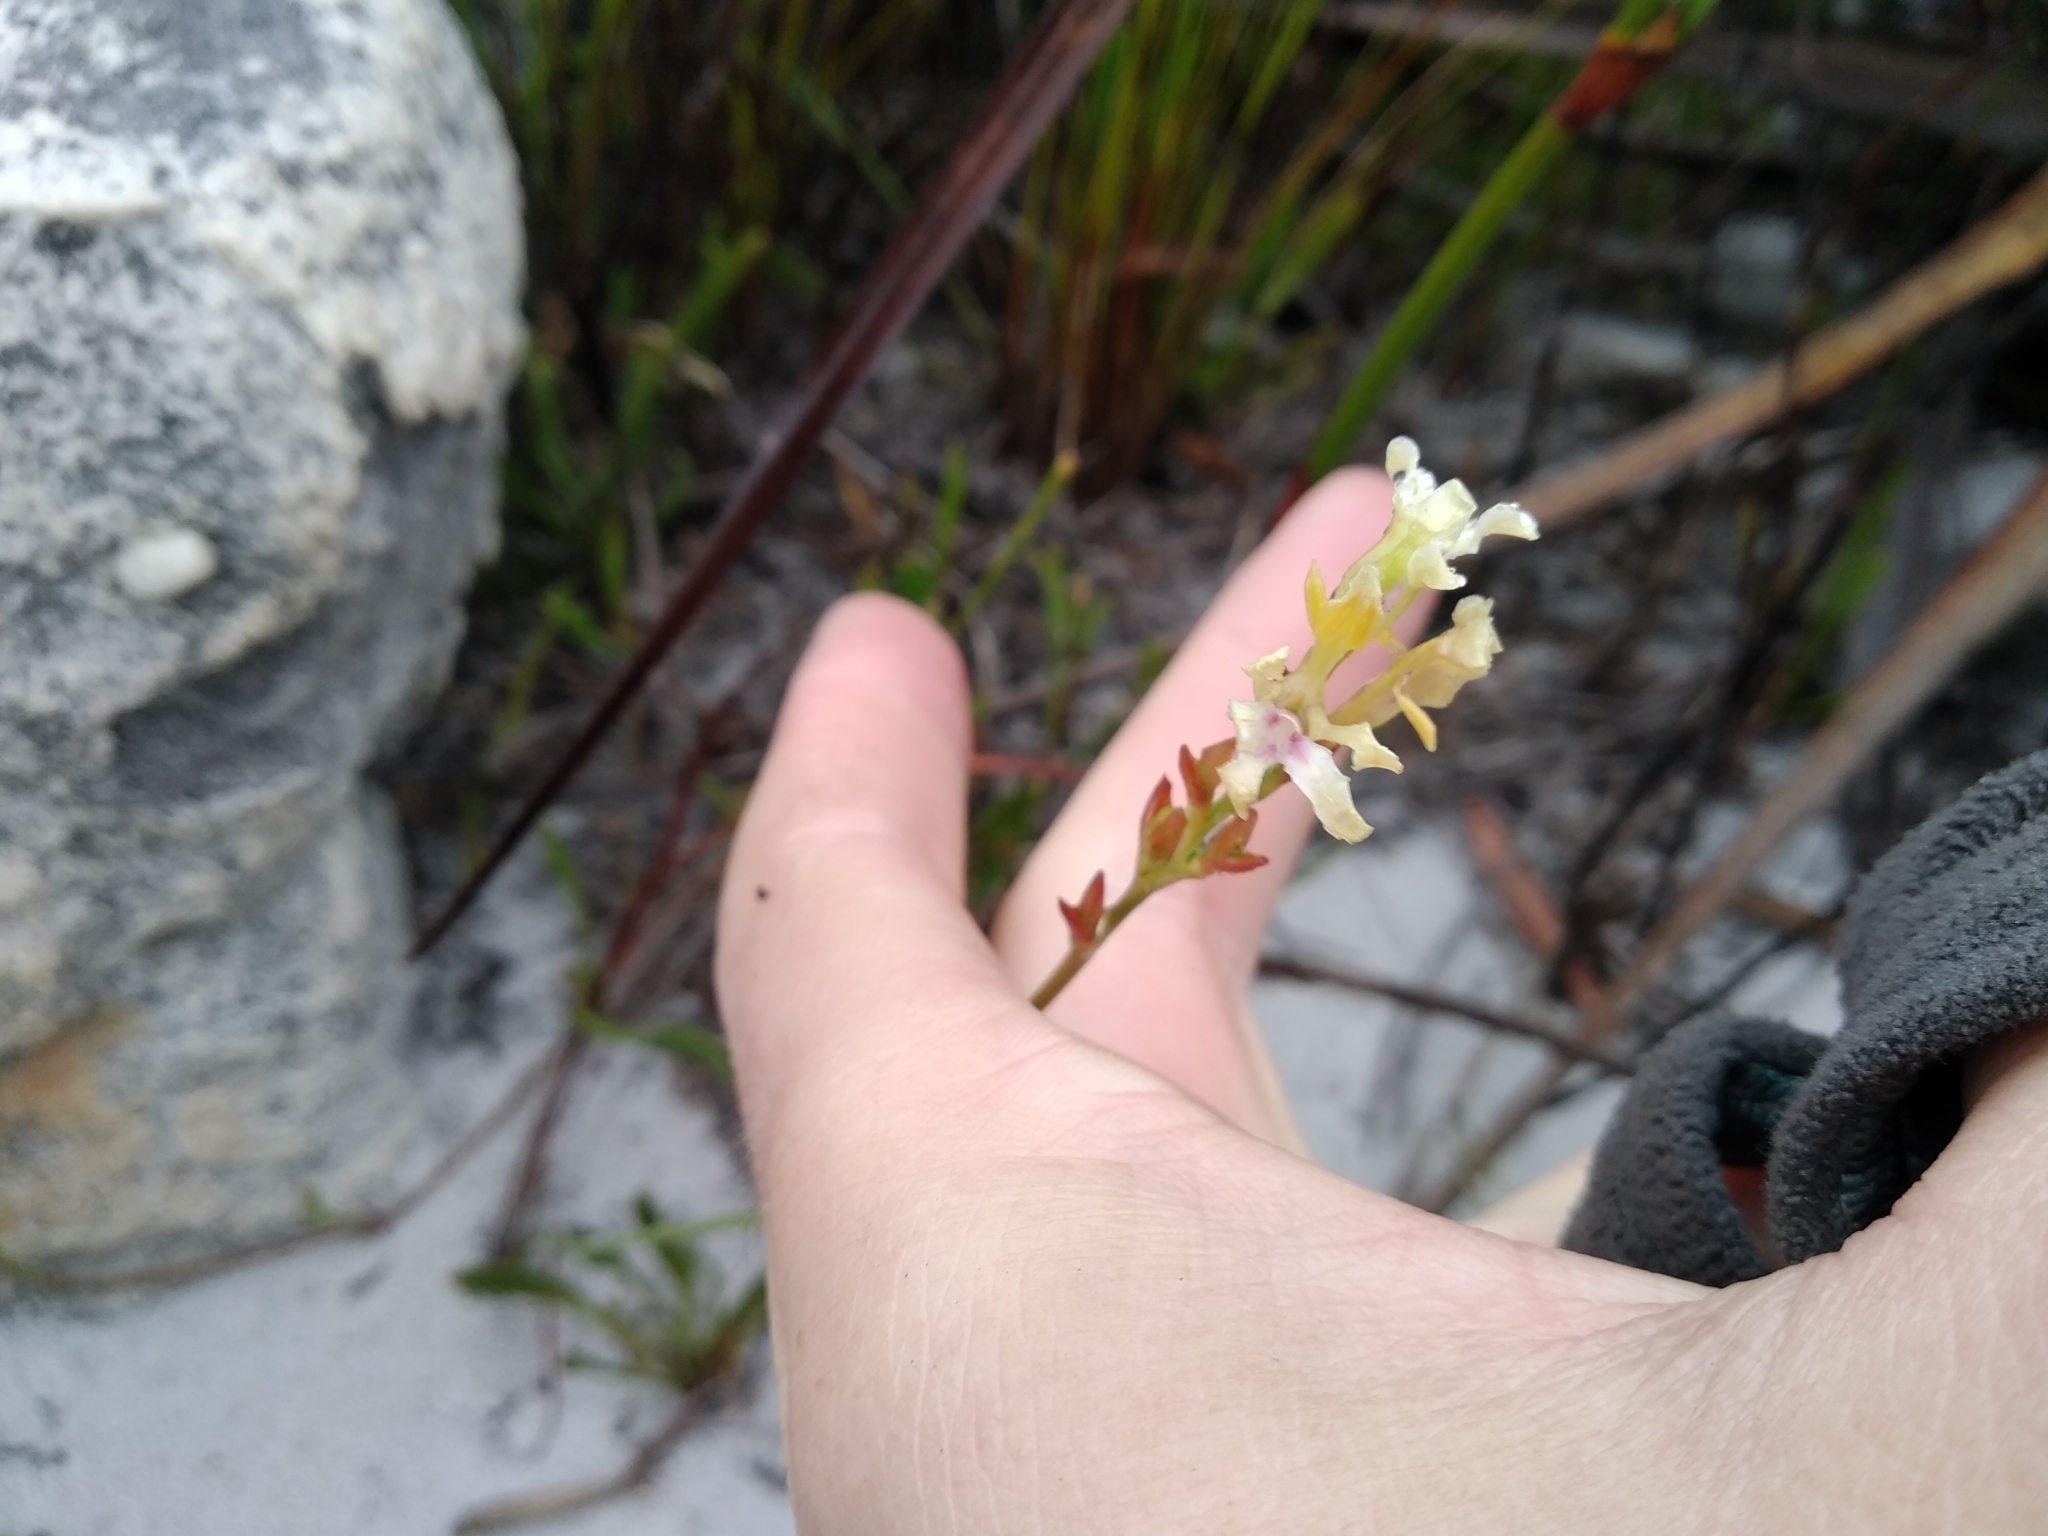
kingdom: Plantae
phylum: Tracheophyta
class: Liliopsida
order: Asparagales
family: Iridaceae
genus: Tritoniopsis
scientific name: Tritoniopsis unguicularis
